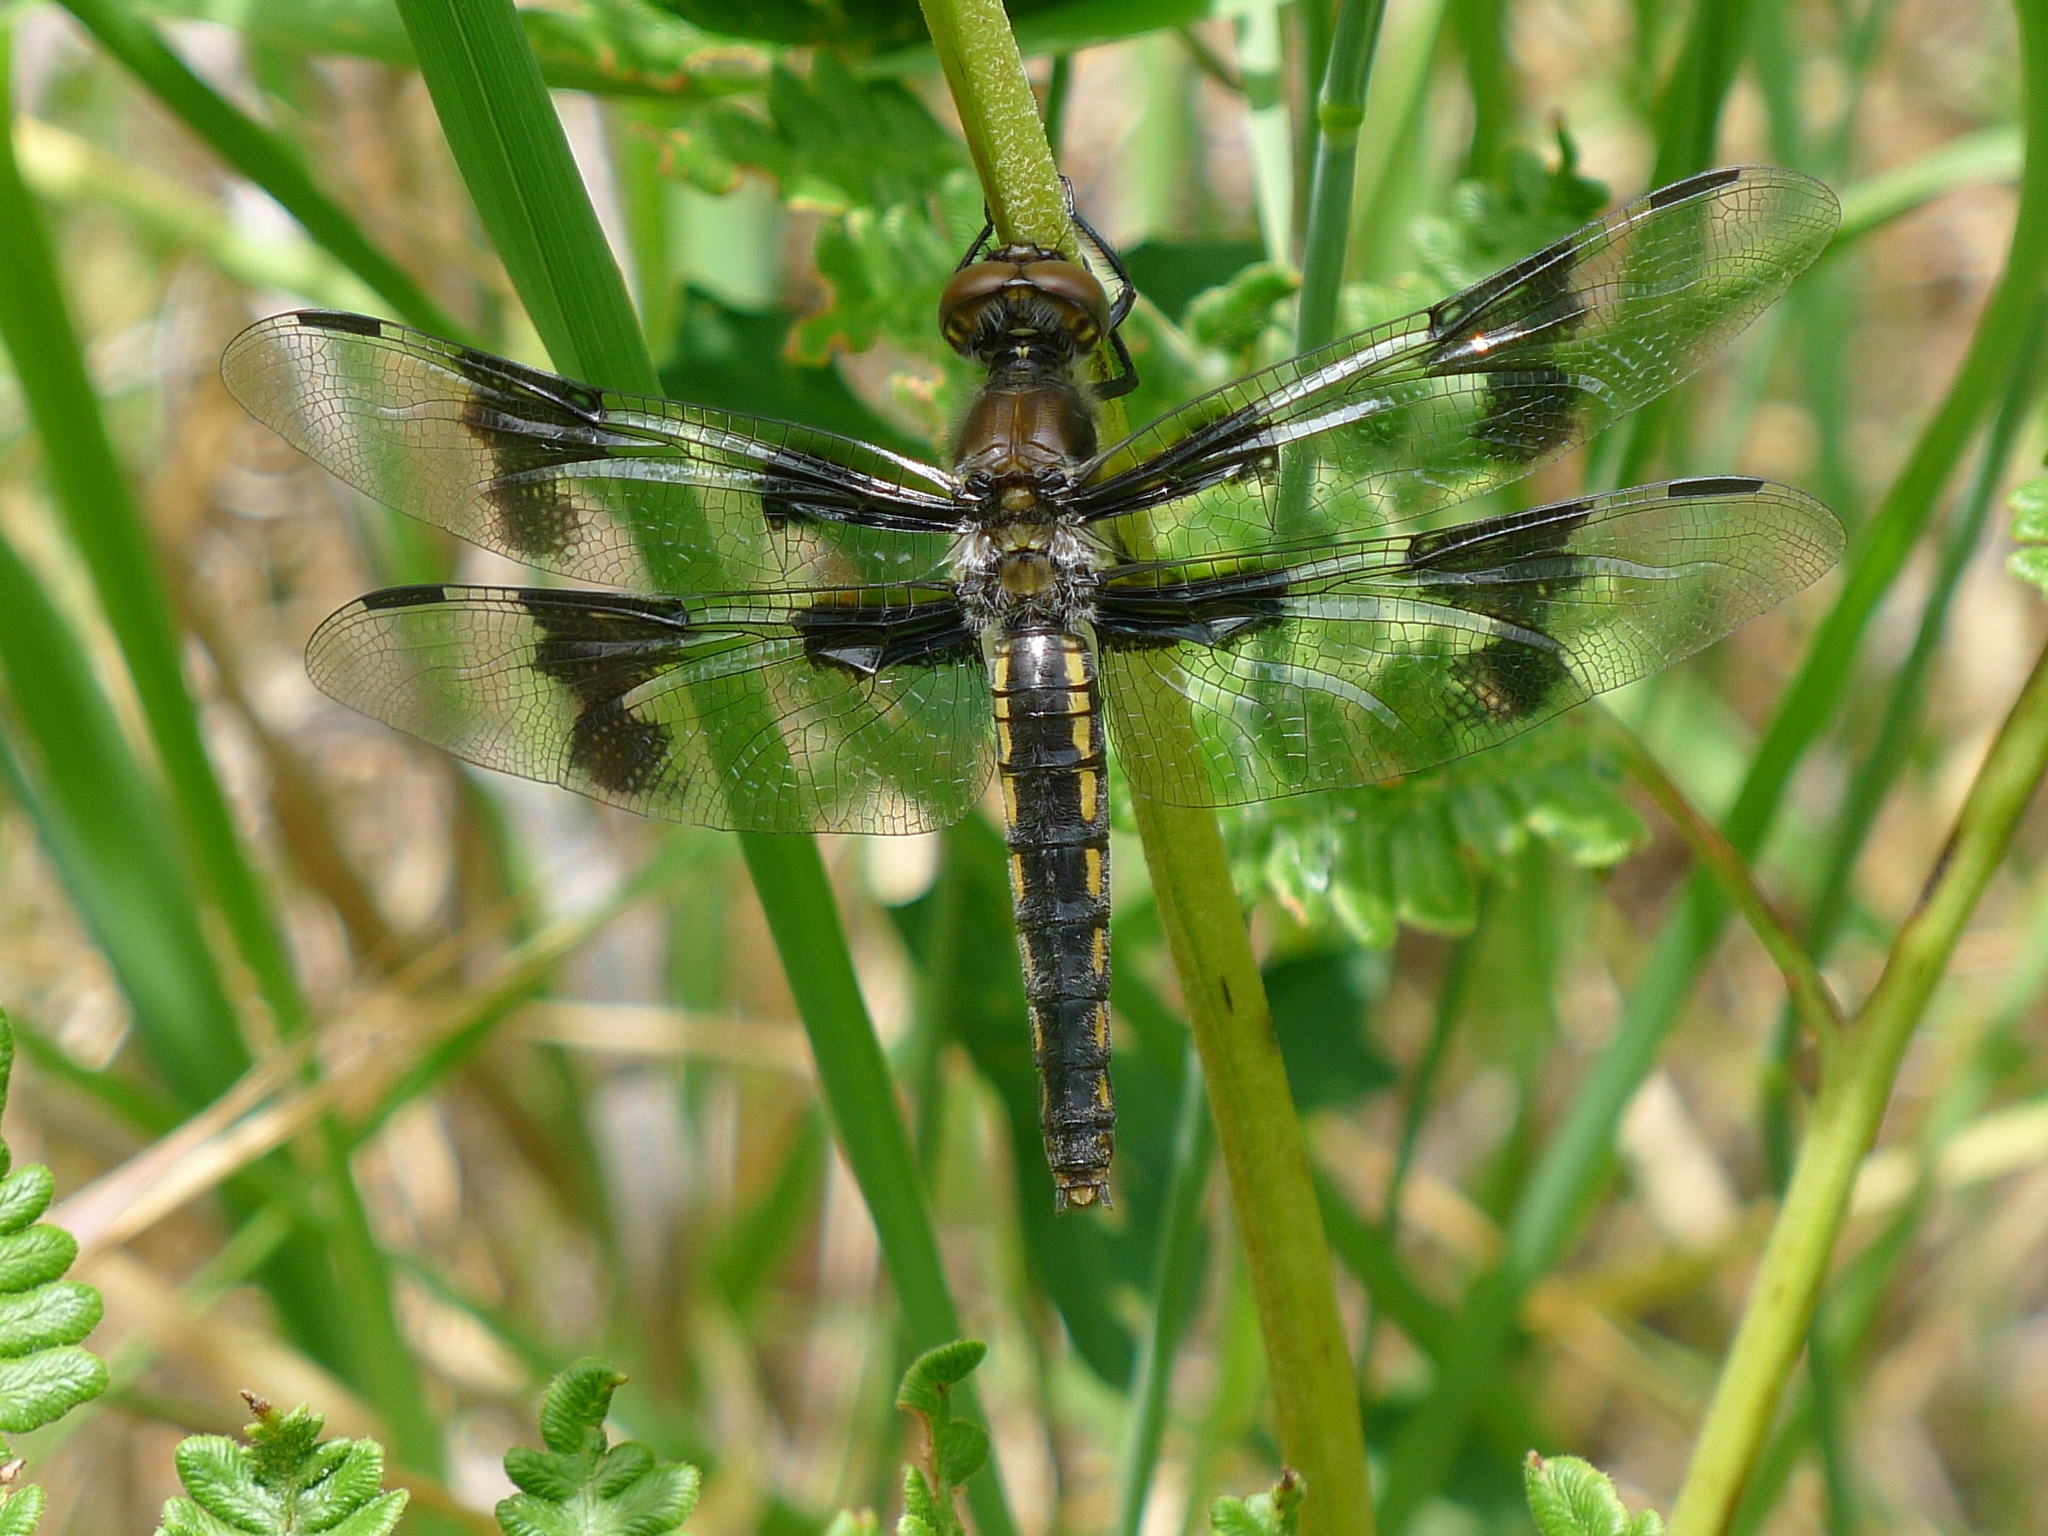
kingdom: Animalia
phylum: Arthropoda
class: Insecta
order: Odonata
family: Libellulidae
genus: Libellula
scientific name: Libellula forensis
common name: Eight-spotted skimmer
